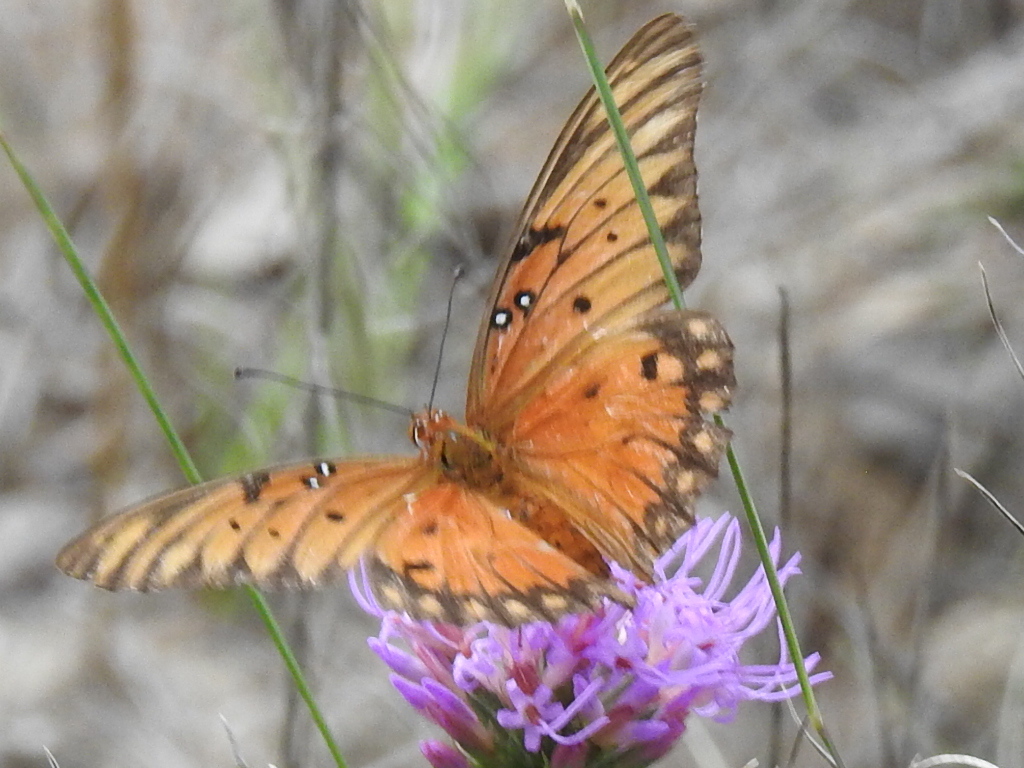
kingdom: Animalia
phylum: Arthropoda
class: Insecta
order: Lepidoptera
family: Nymphalidae
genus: Dione
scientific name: Dione vanillae
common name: Gulf fritillary
